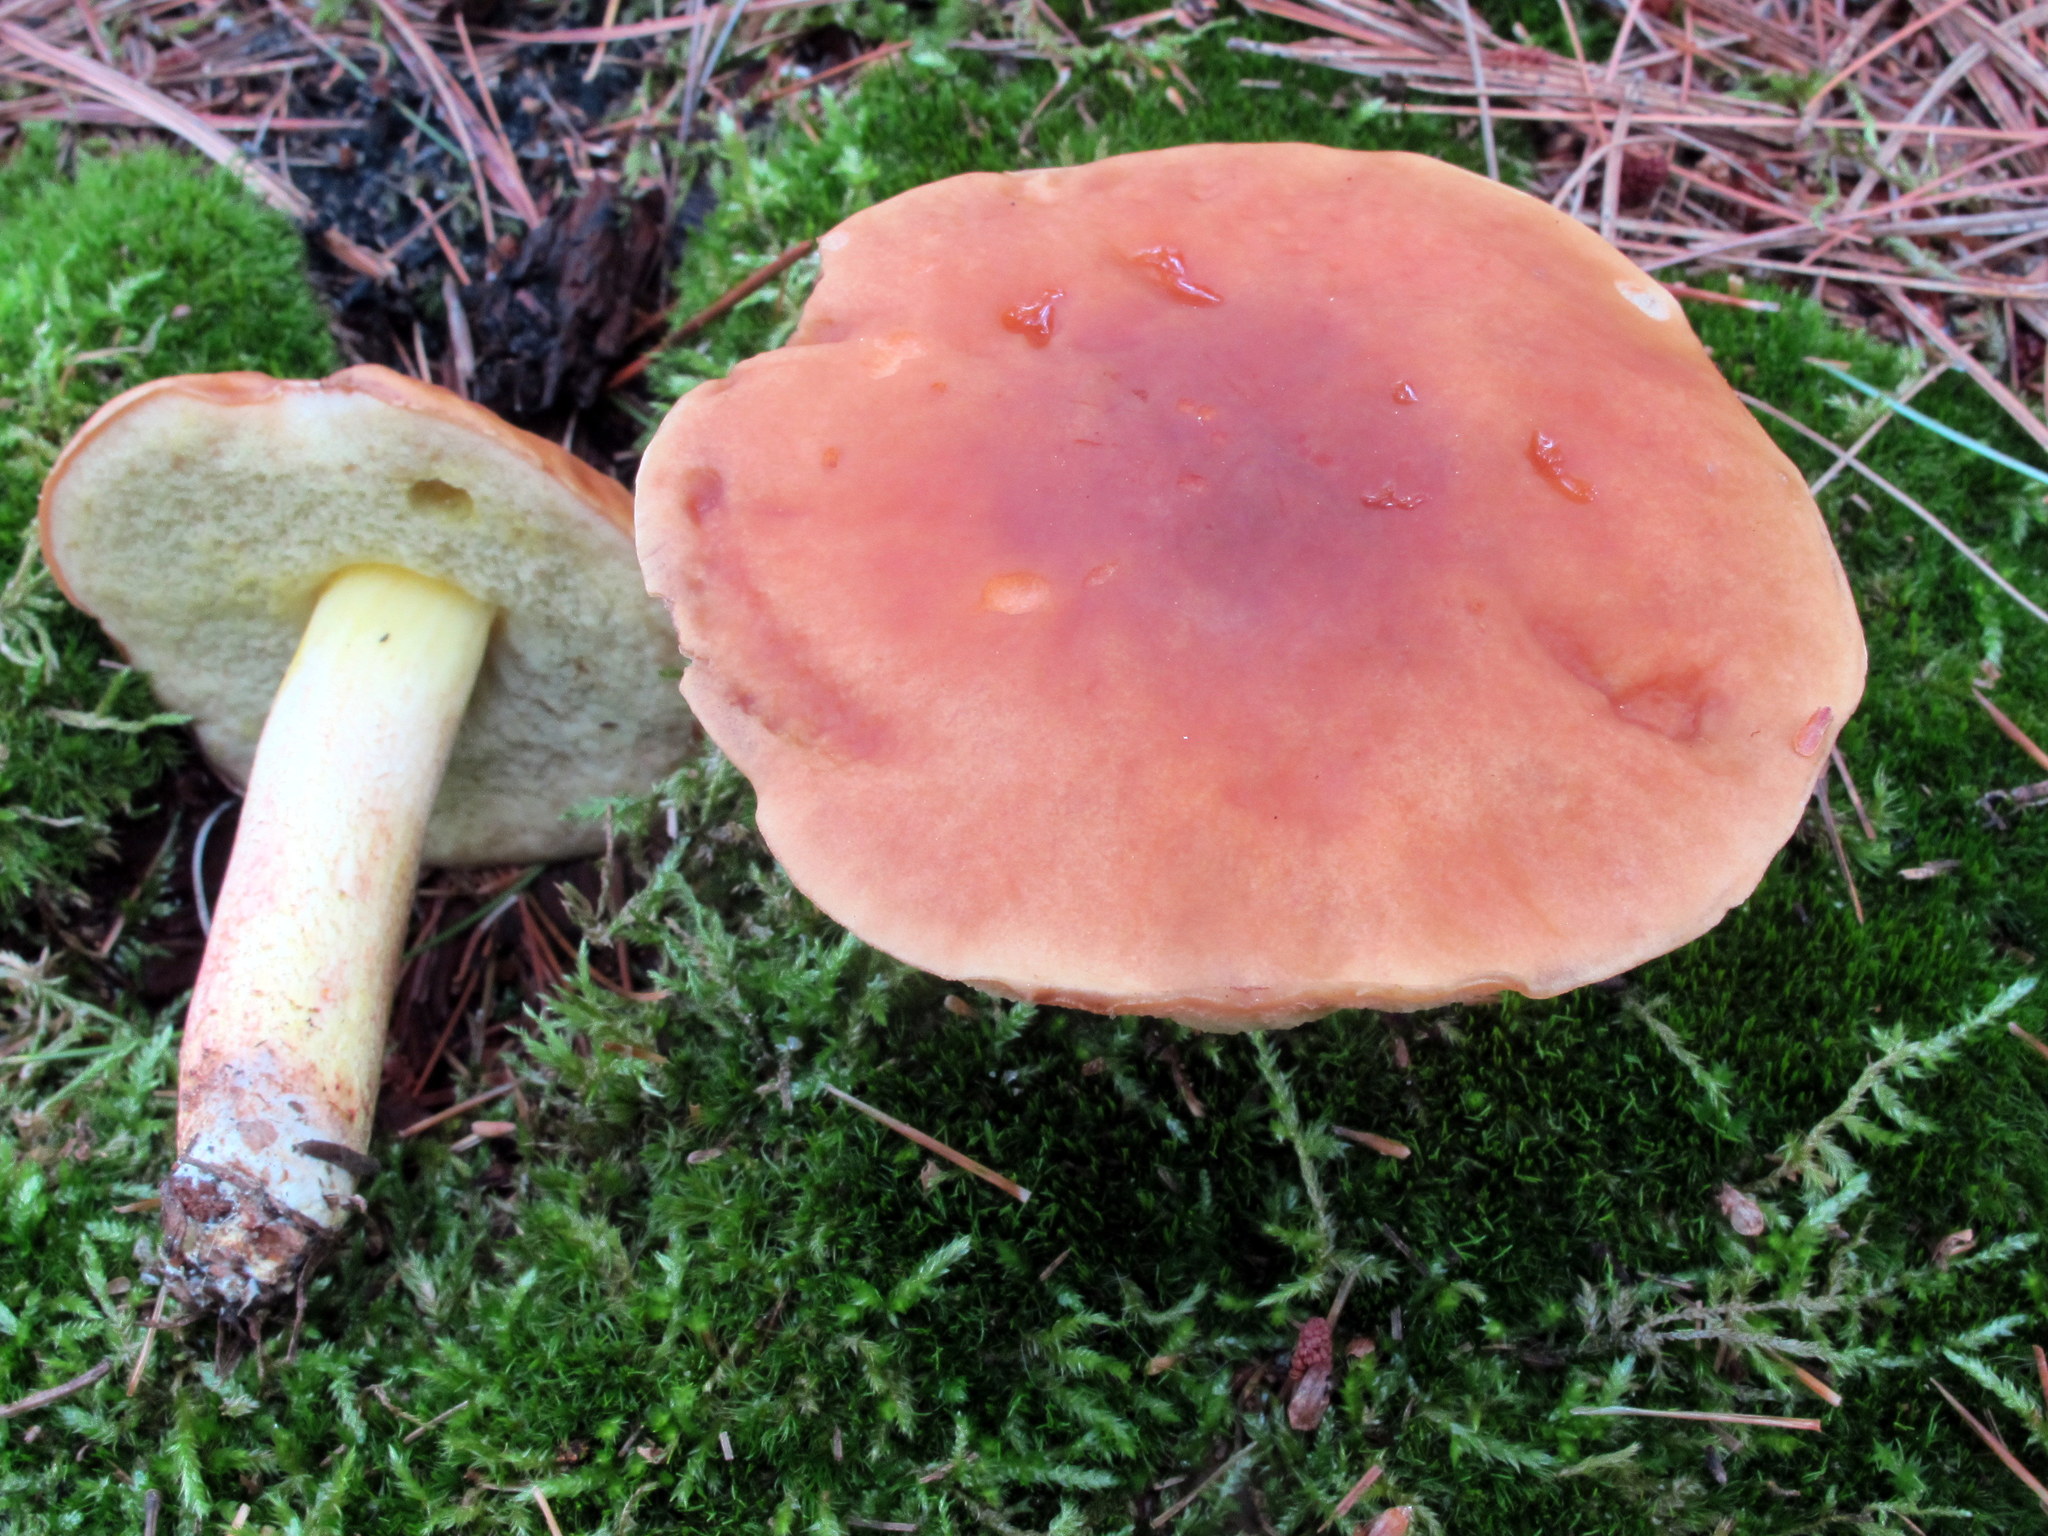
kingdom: Fungi
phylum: Basidiomycota
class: Agaricomycetes
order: Boletales
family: Boletaceae
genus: Hemileccinum
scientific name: Hemileccinum subglabripes
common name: Smoothish-stemmed bolete
